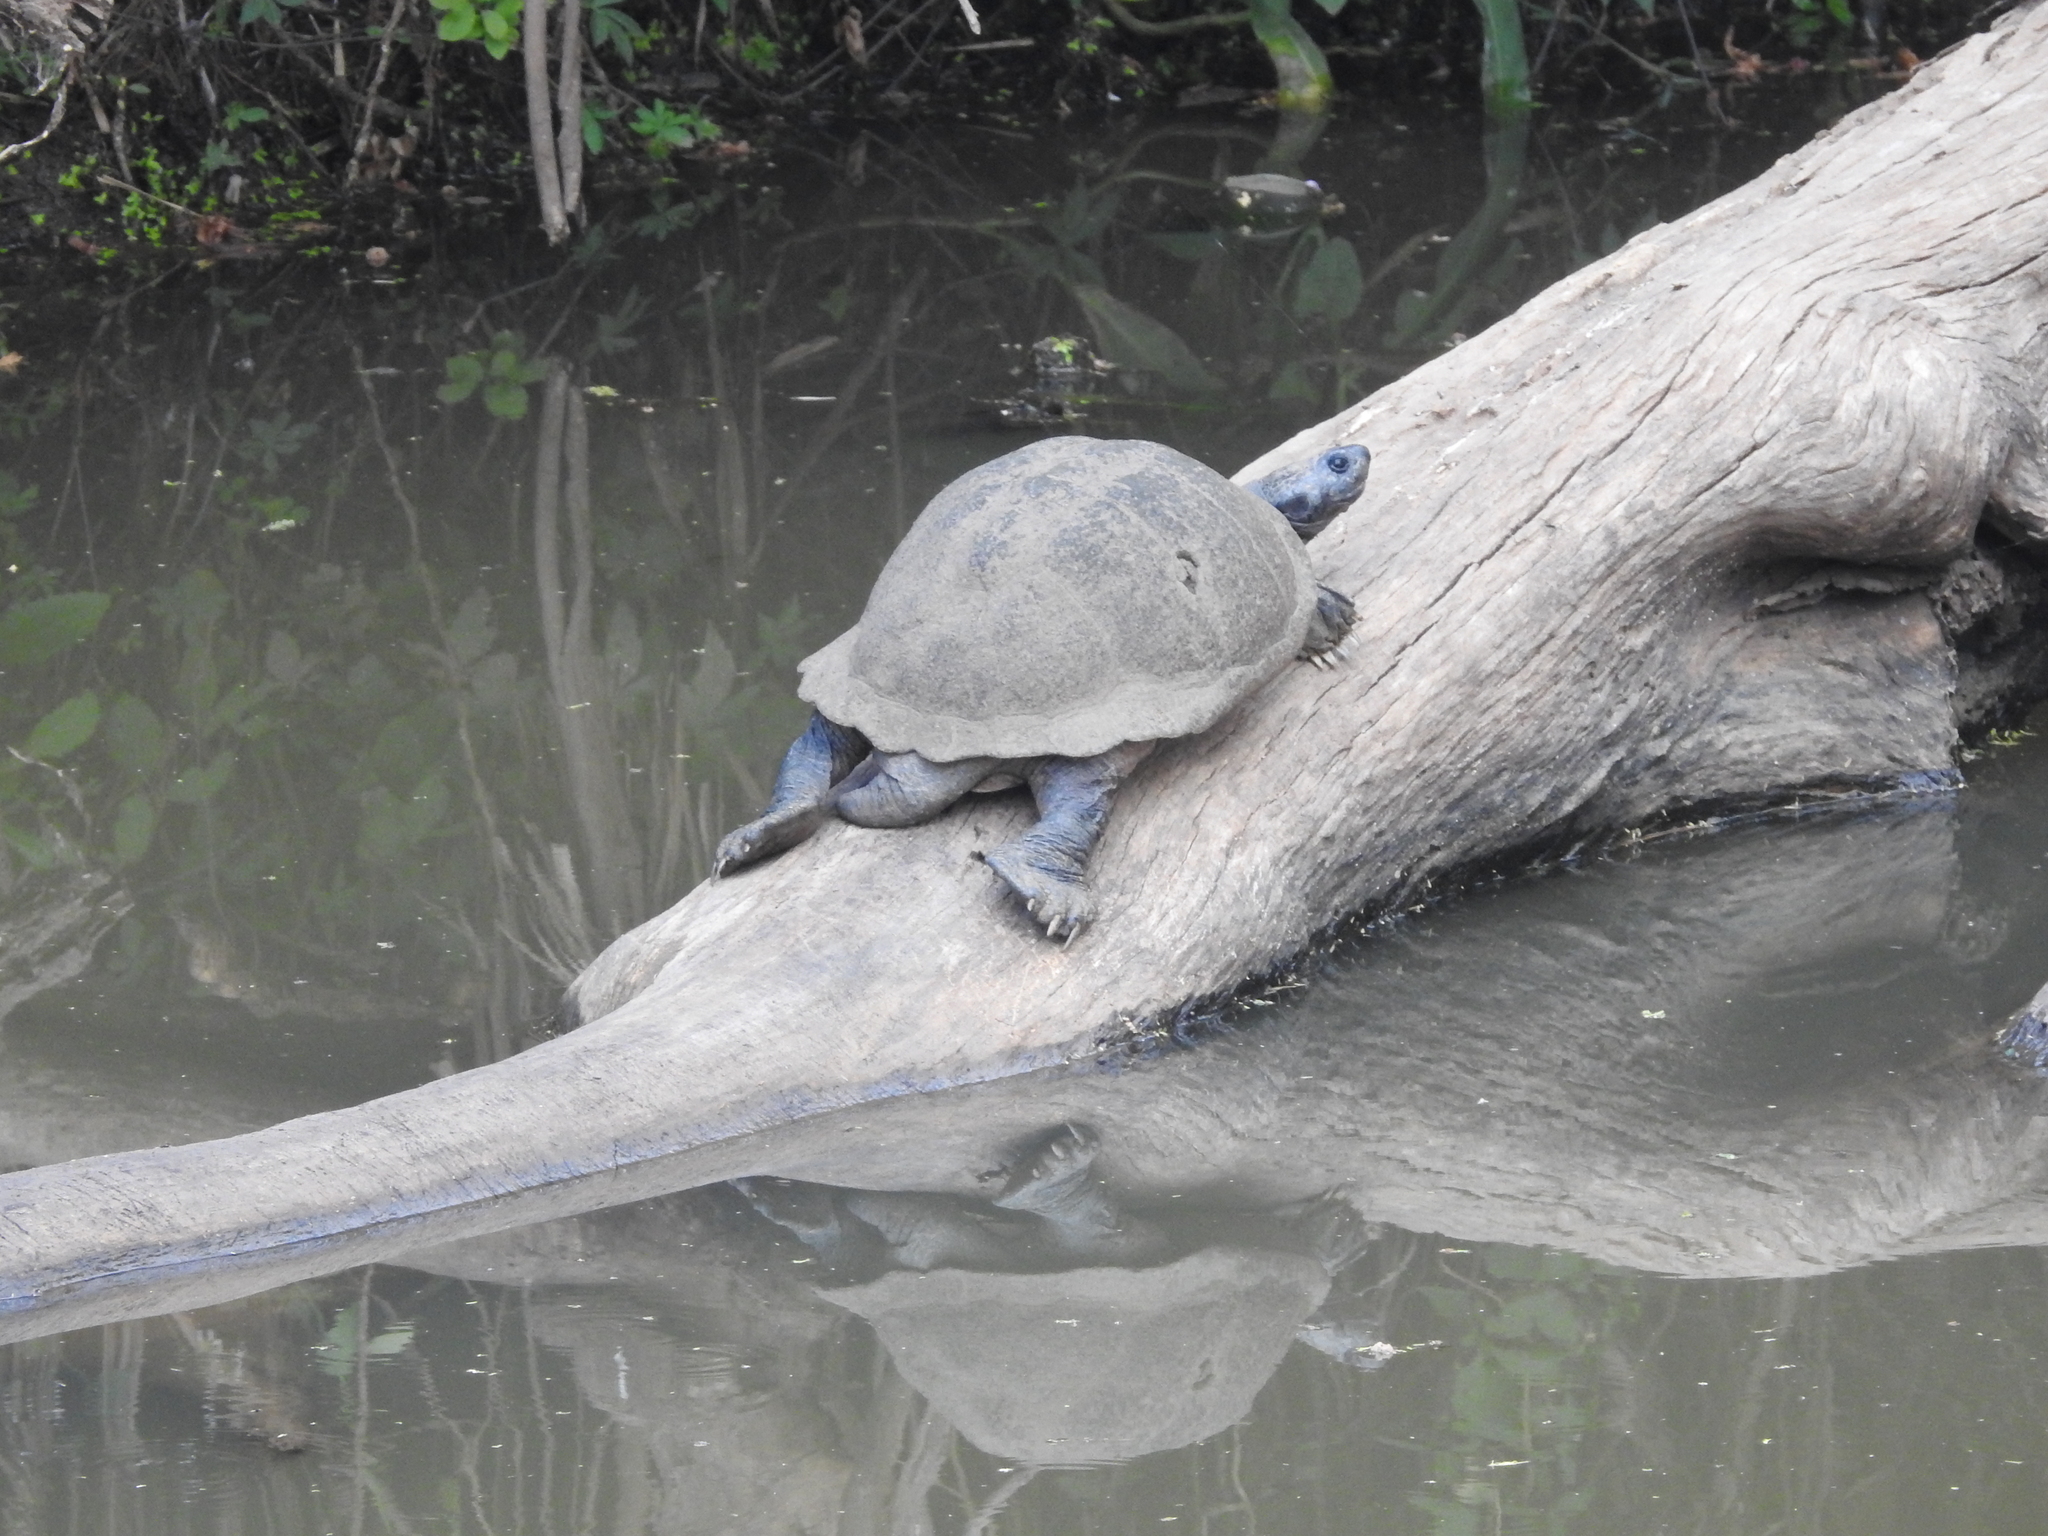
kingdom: Animalia
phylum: Chordata
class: Testudines
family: Pelomedusidae
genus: Pelusios
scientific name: Pelusios sinuatus
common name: Serrated hinged terrapin
